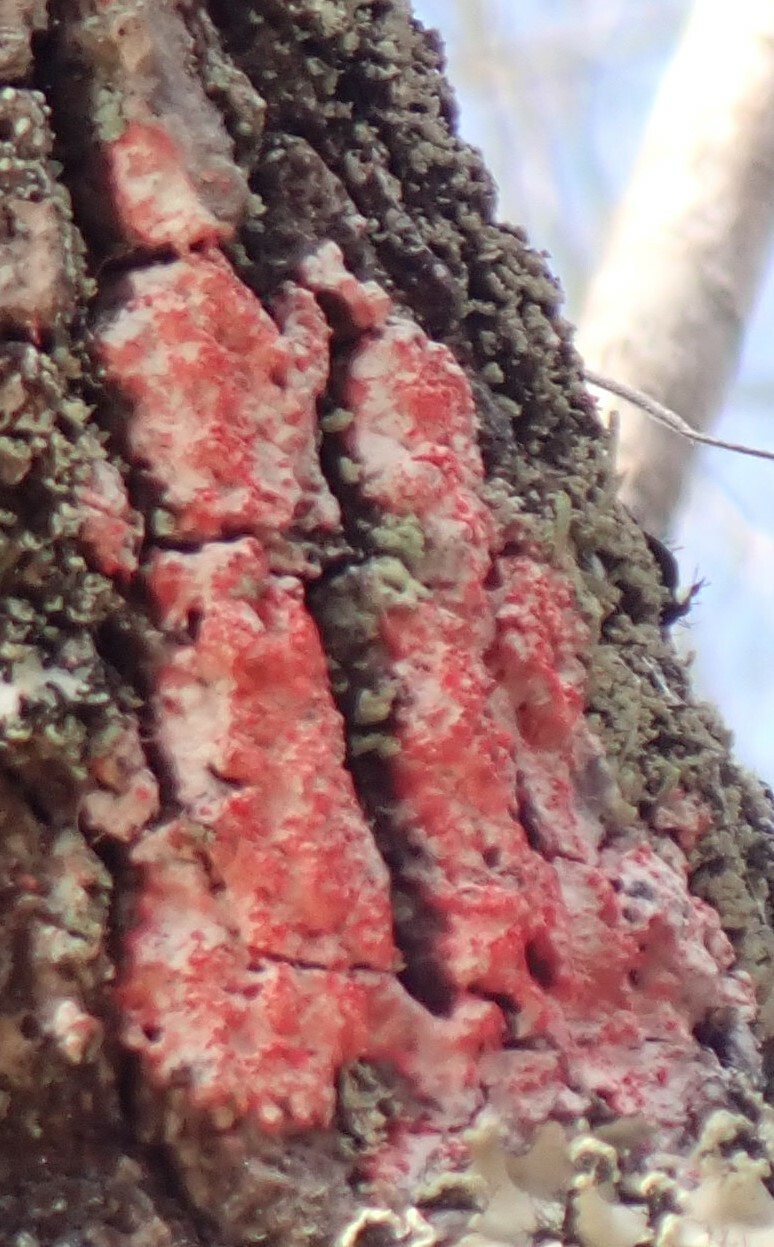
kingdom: Fungi
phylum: Ascomycota
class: Arthoniomycetes
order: Arthoniales
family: Arthoniaceae
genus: Herpothallon
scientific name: Herpothallon rubrocinctum
